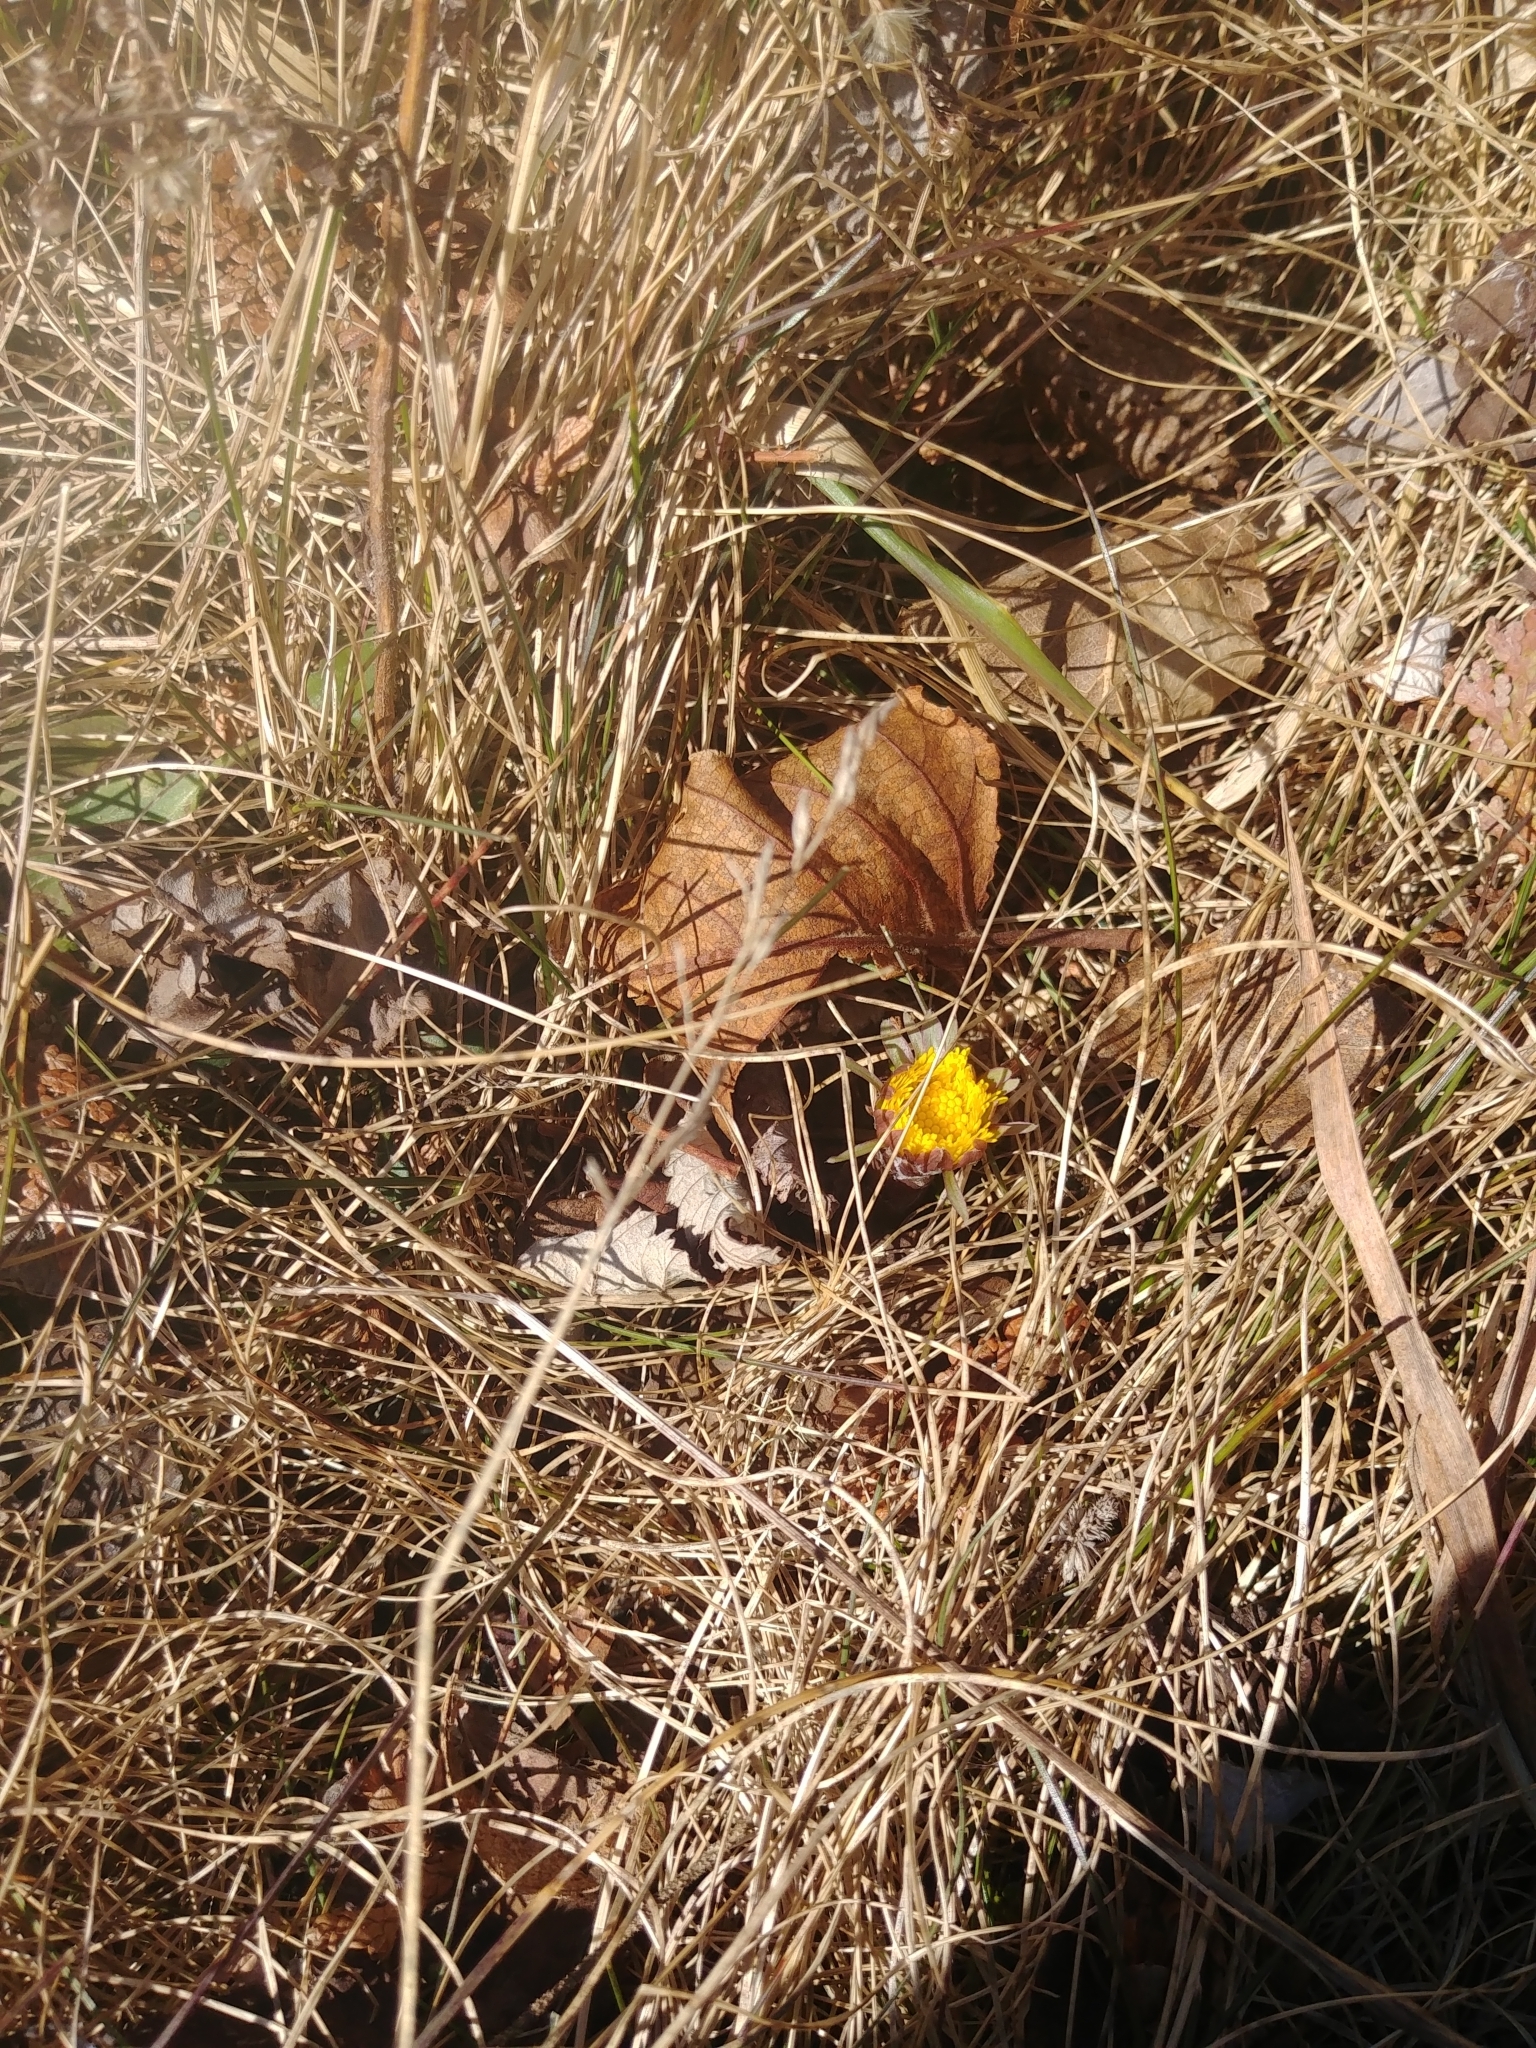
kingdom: Plantae
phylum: Tracheophyta
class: Magnoliopsida
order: Asterales
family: Asteraceae
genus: Tussilago
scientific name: Tussilago farfara
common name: Coltsfoot
